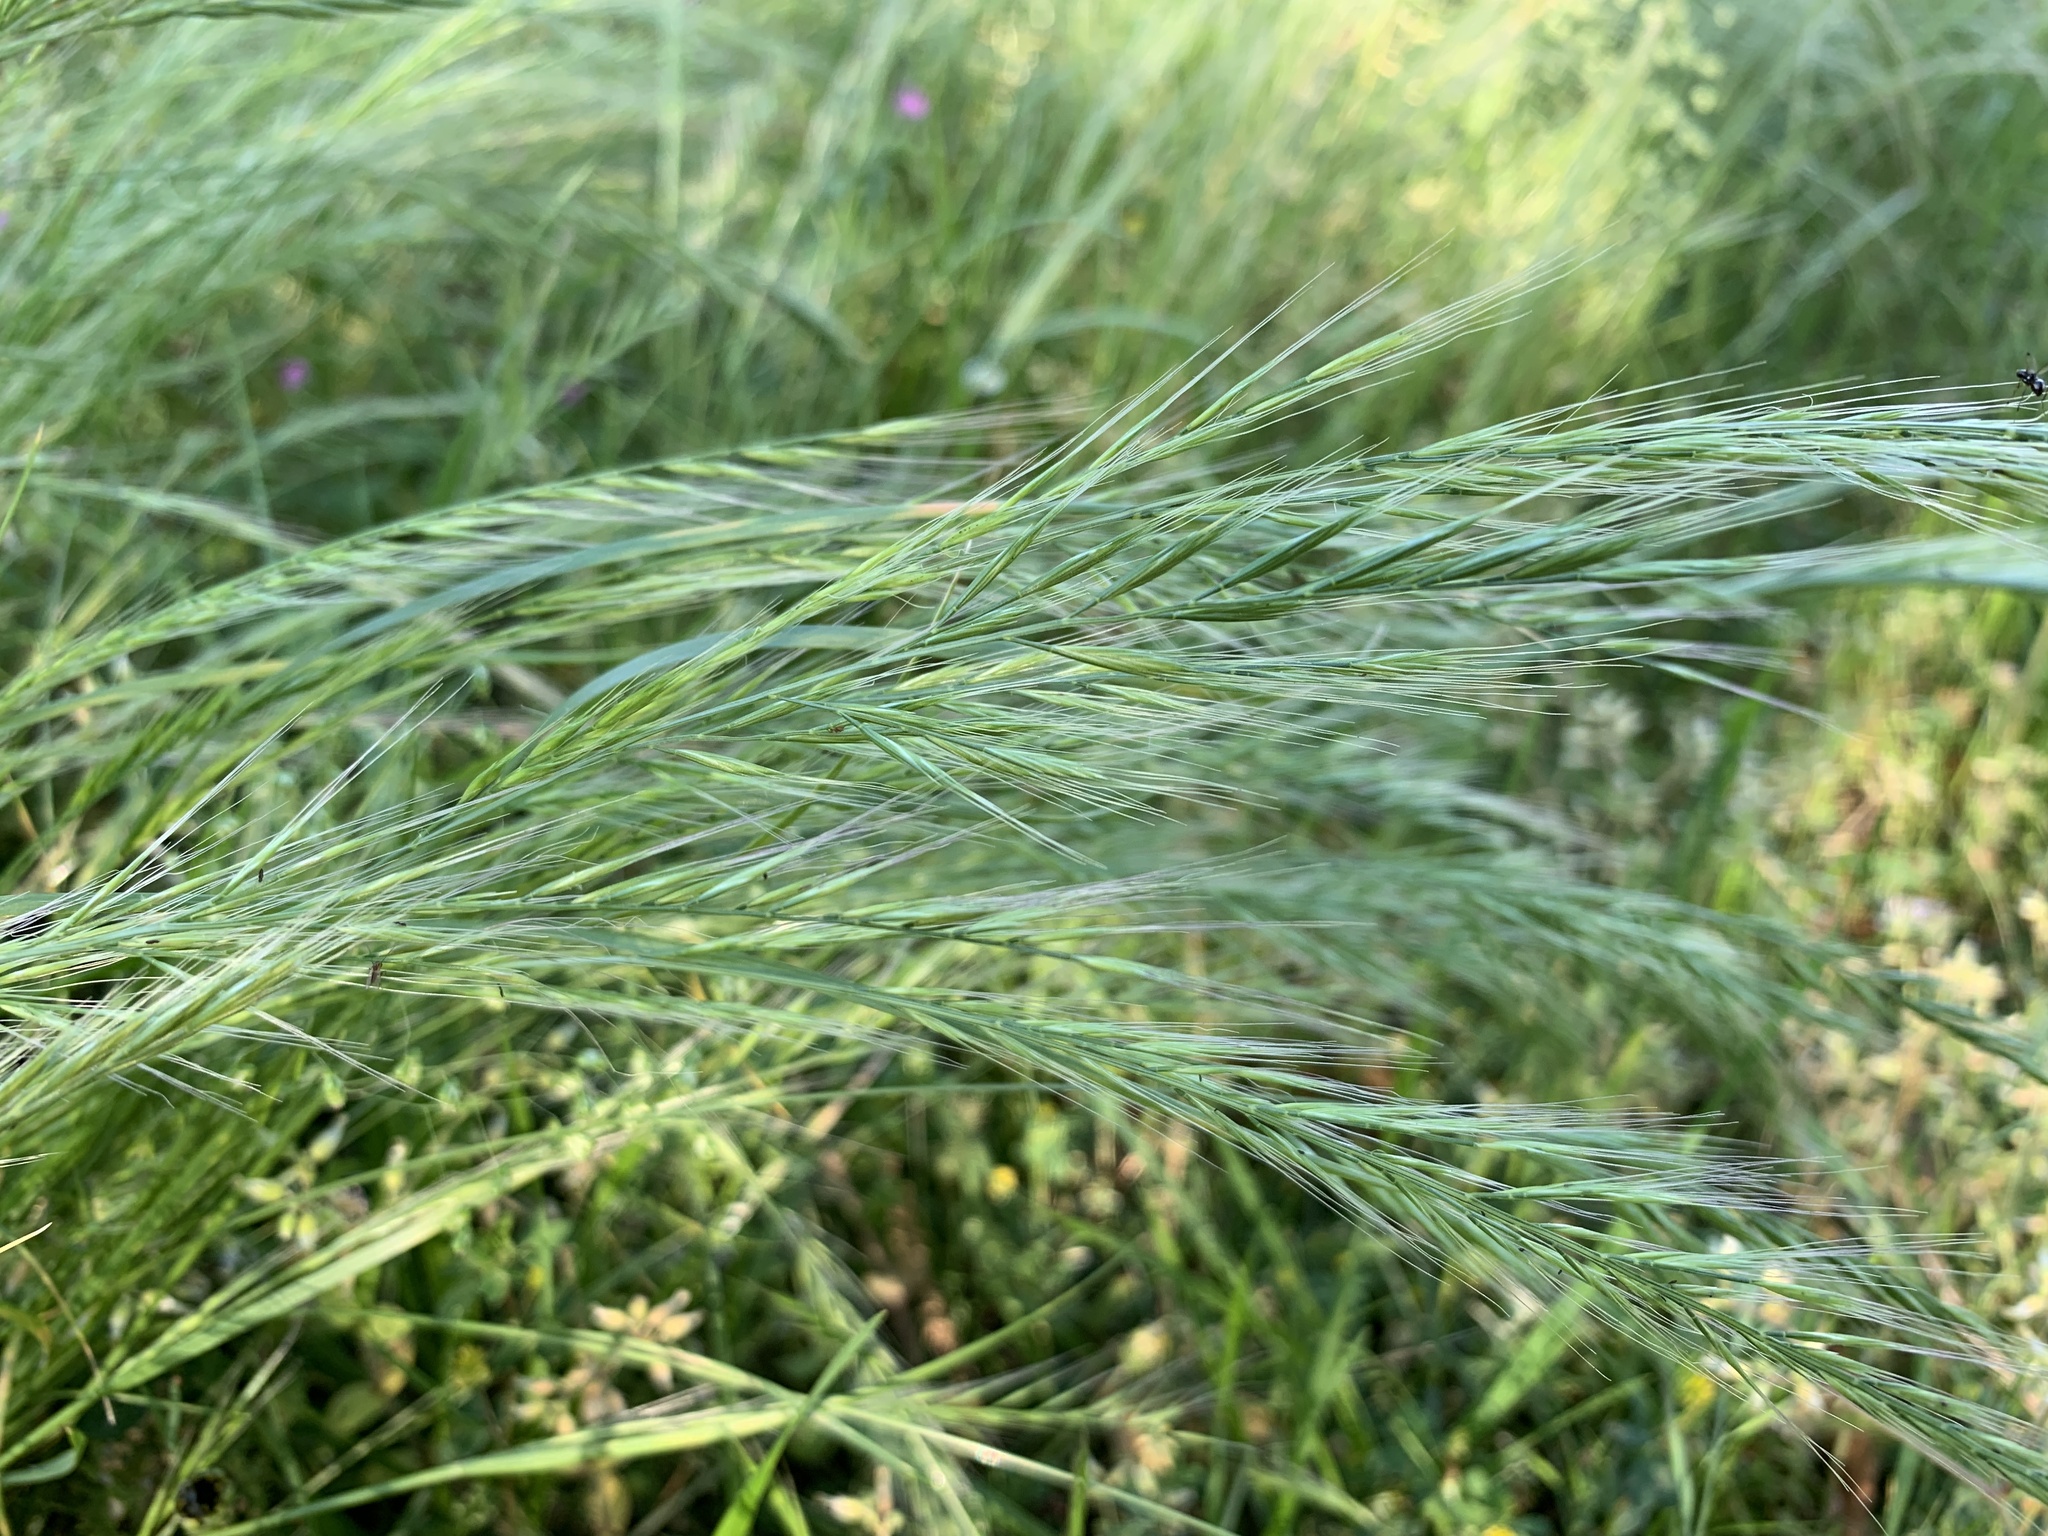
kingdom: Plantae
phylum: Tracheophyta
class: Liliopsida
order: Poales
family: Poaceae
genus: Festuca
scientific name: Festuca myuros
